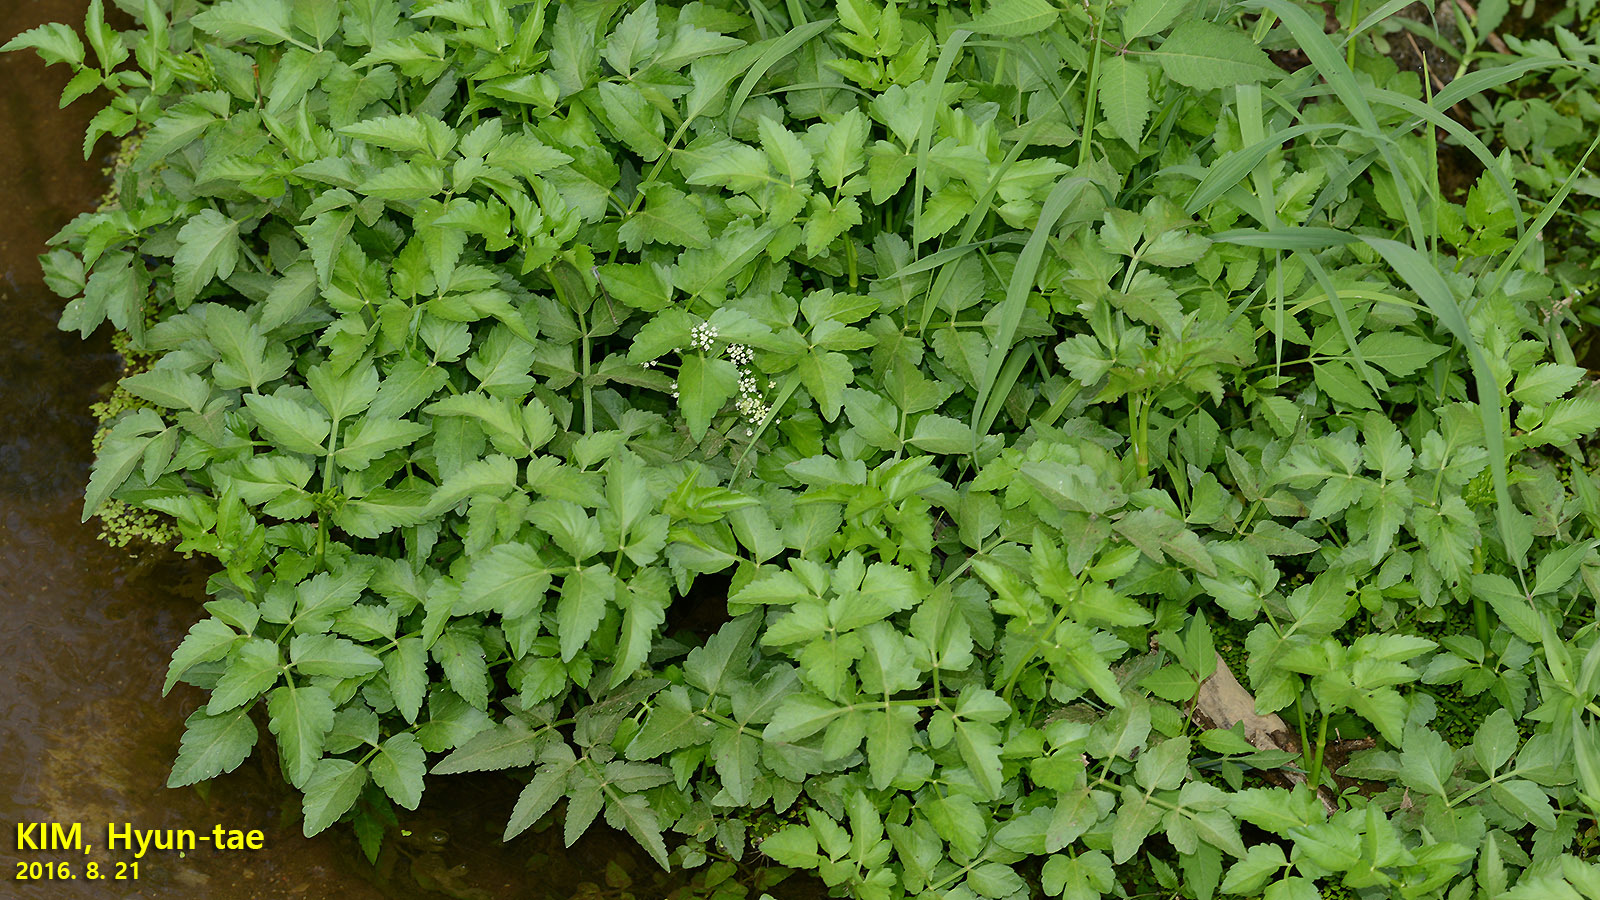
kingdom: Plantae
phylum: Tracheophyta
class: Magnoliopsida
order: Apiales
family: Apiaceae
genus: Oenanthe
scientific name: Oenanthe javanica
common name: Java water-dropwort
